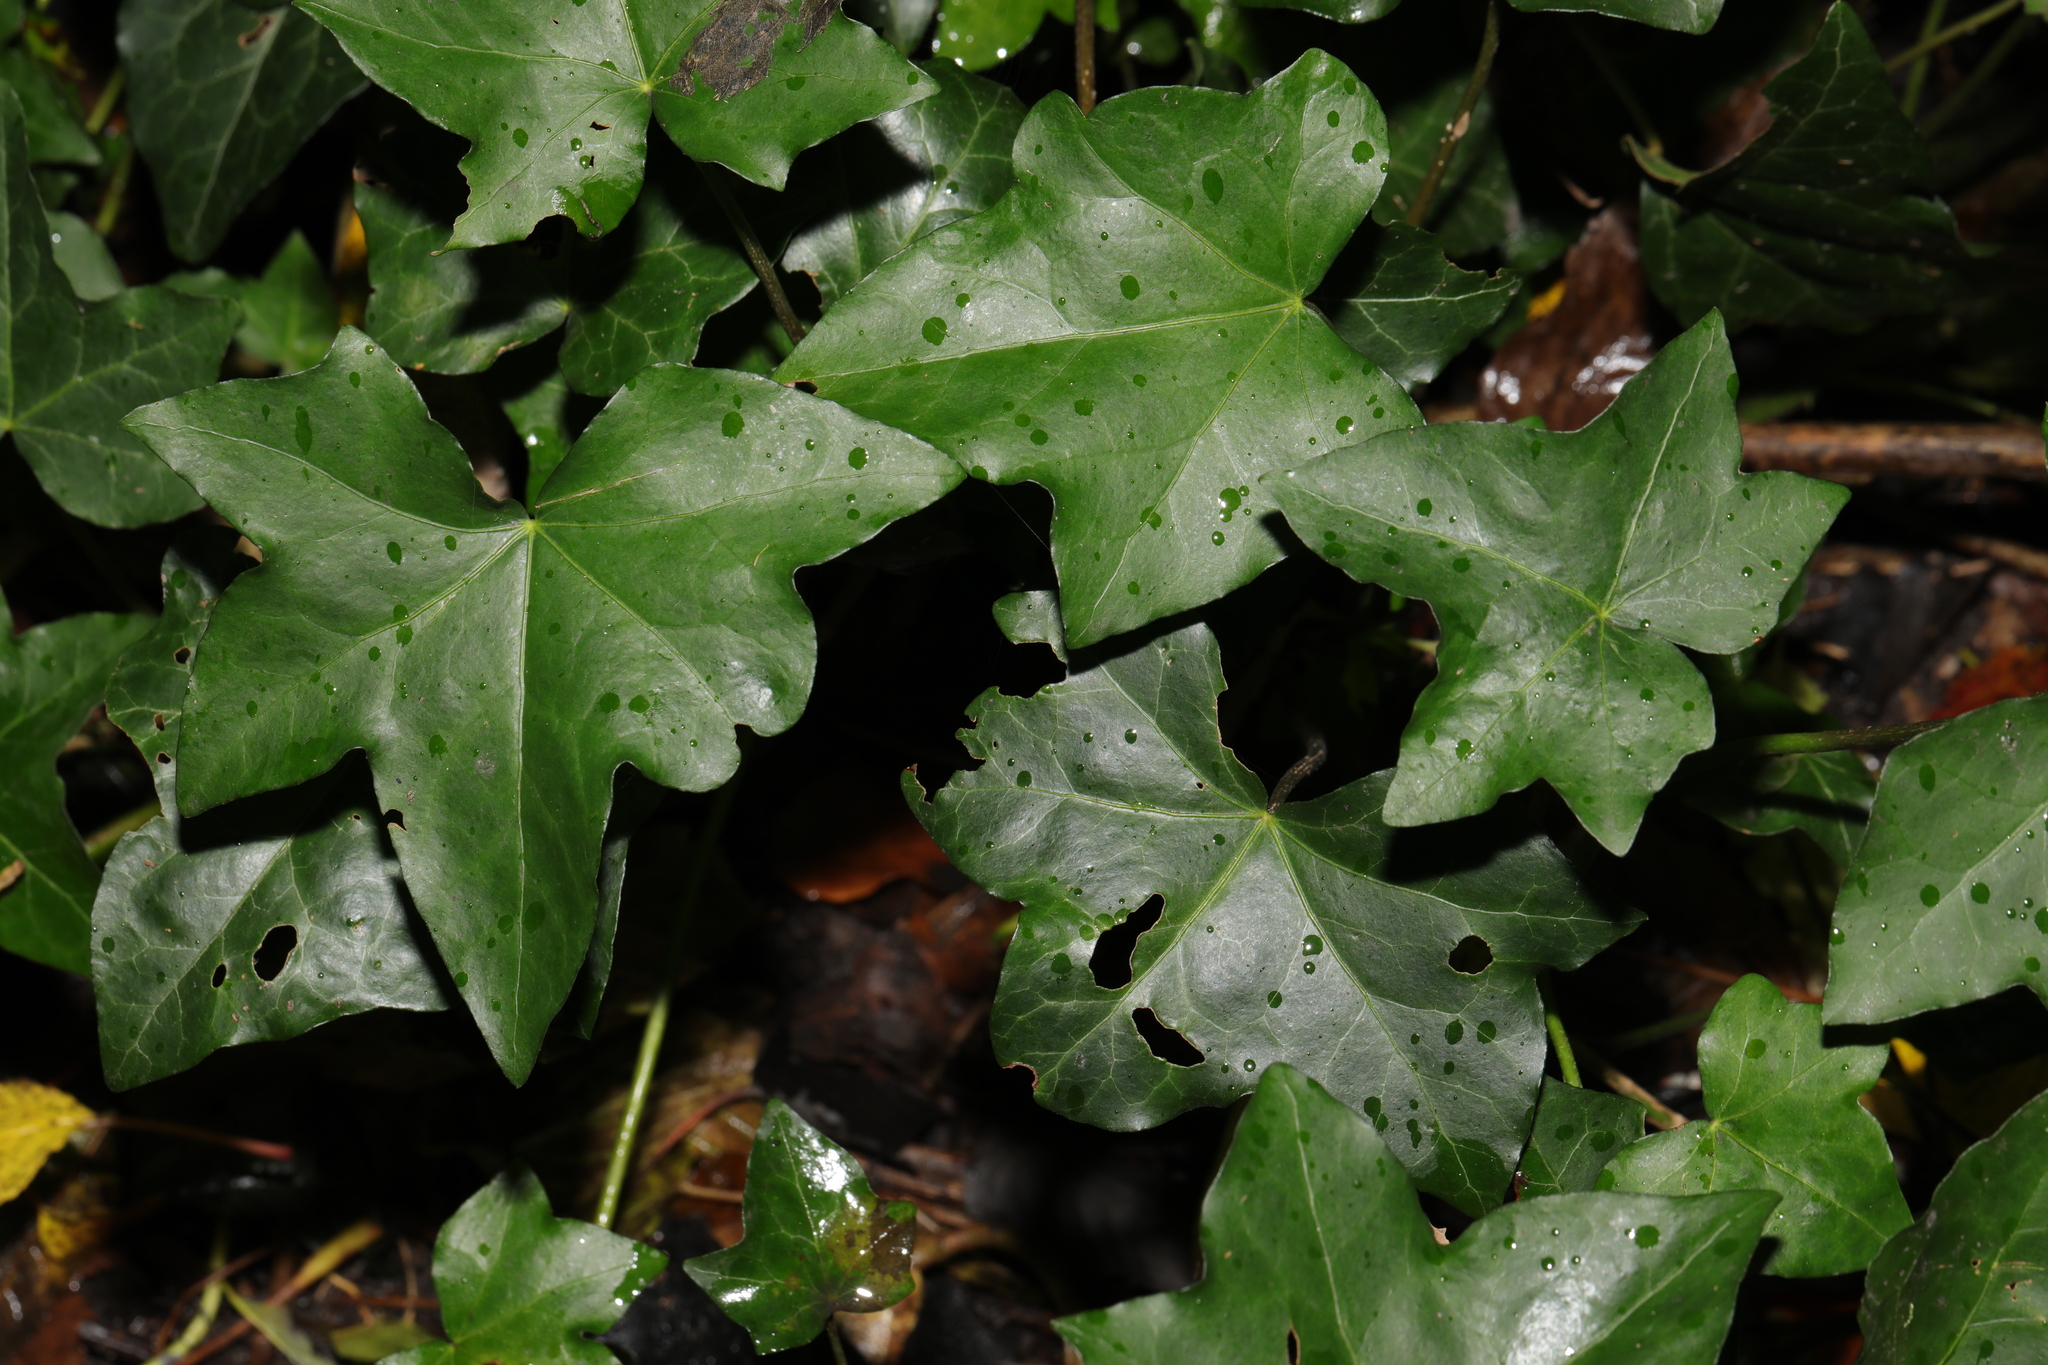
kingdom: Plantae
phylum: Tracheophyta
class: Magnoliopsida
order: Apiales
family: Araliaceae
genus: Hedera
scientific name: Hedera helix
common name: Ivy
